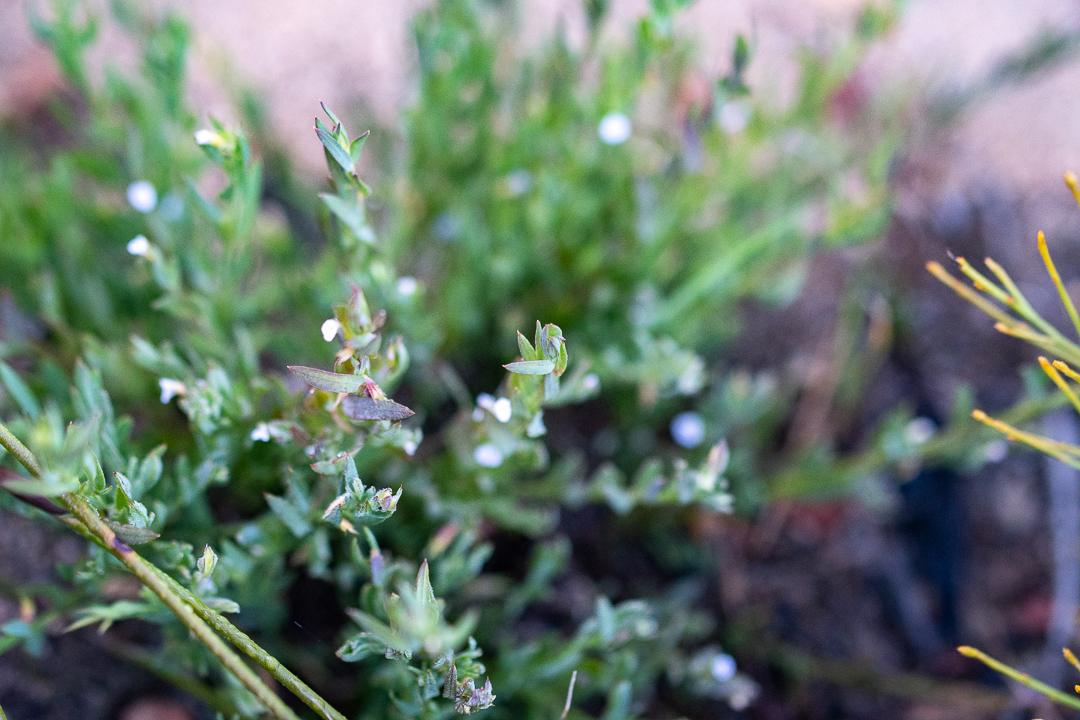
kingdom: Plantae
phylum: Tracheophyta
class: Magnoliopsida
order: Fabales
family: Polygalaceae
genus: Muraltia
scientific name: Muraltia oxysepala
